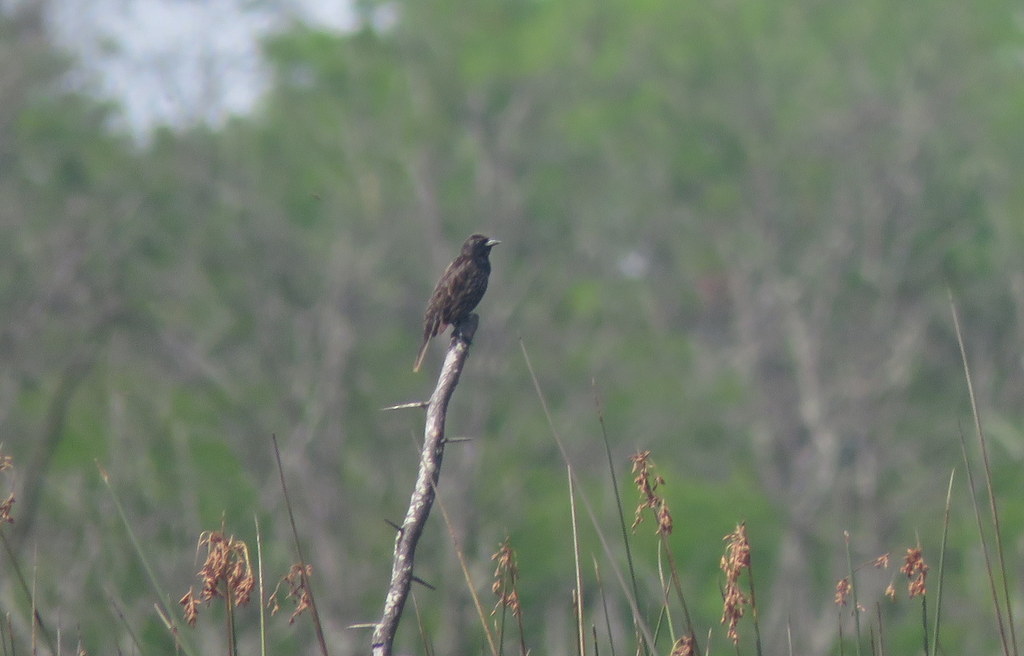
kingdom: Animalia
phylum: Chordata
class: Aves
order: Passeriformes
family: Icteridae
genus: Agelasticus
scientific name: Agelasticus thilius
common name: Yellow-winged blackbird
